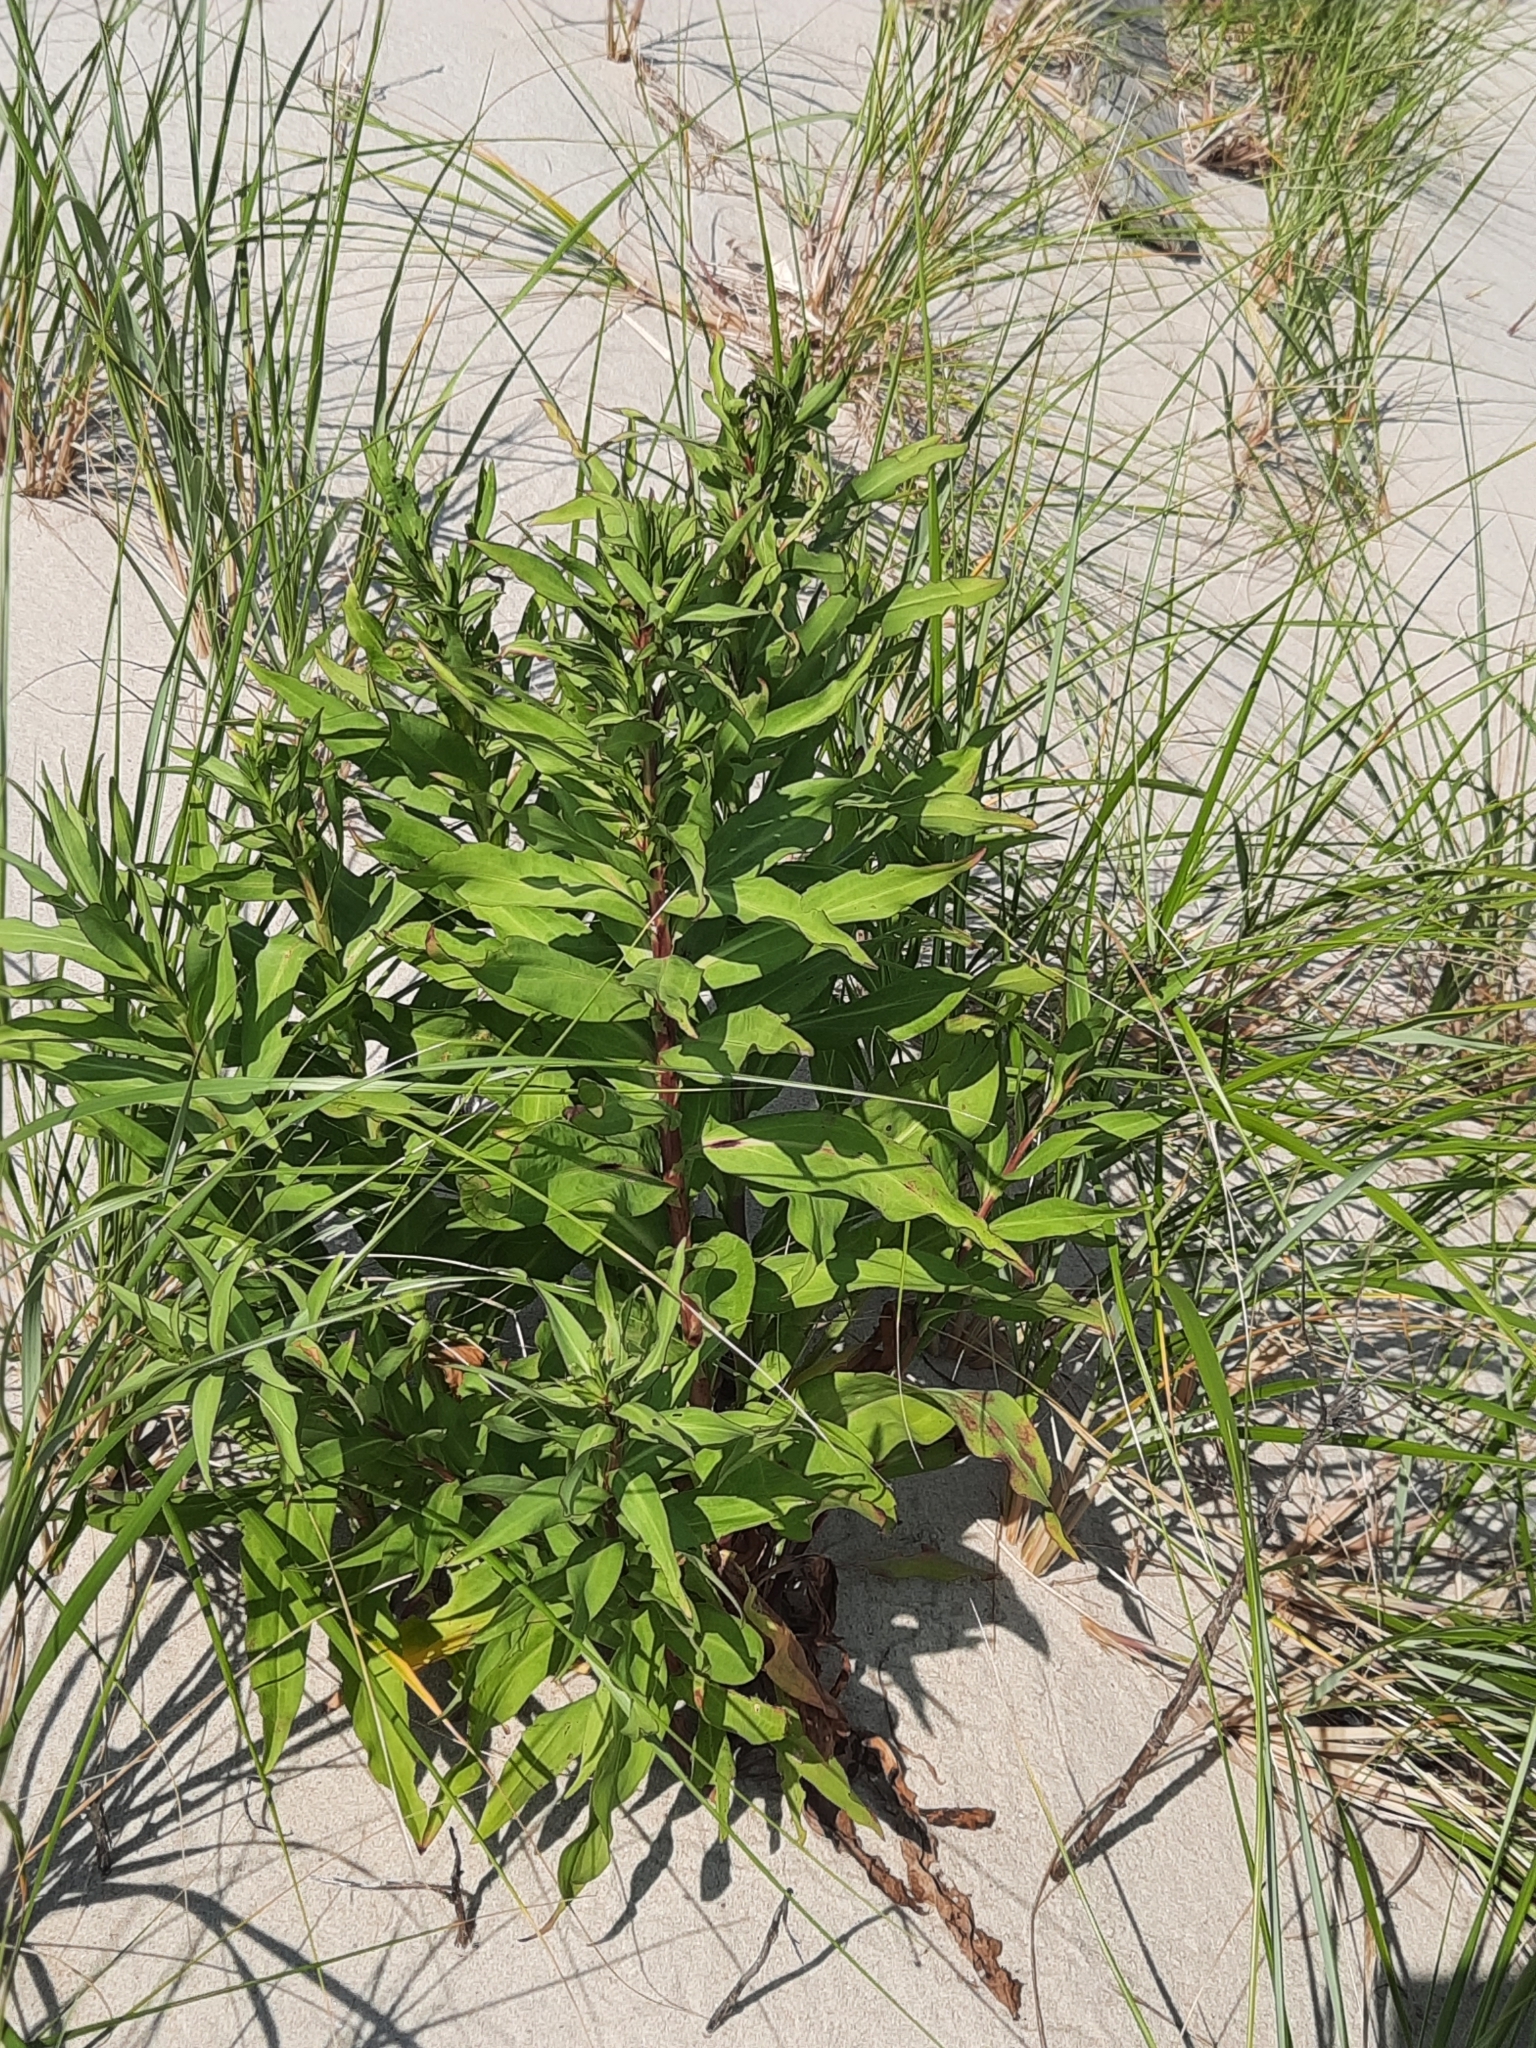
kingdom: Plantae
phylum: Tracheophyta
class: Magnoliopsida
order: Asterales
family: Asteraceae
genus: Solidago
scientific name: Solidago sempervirens
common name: Salt-marsh goldenrod
